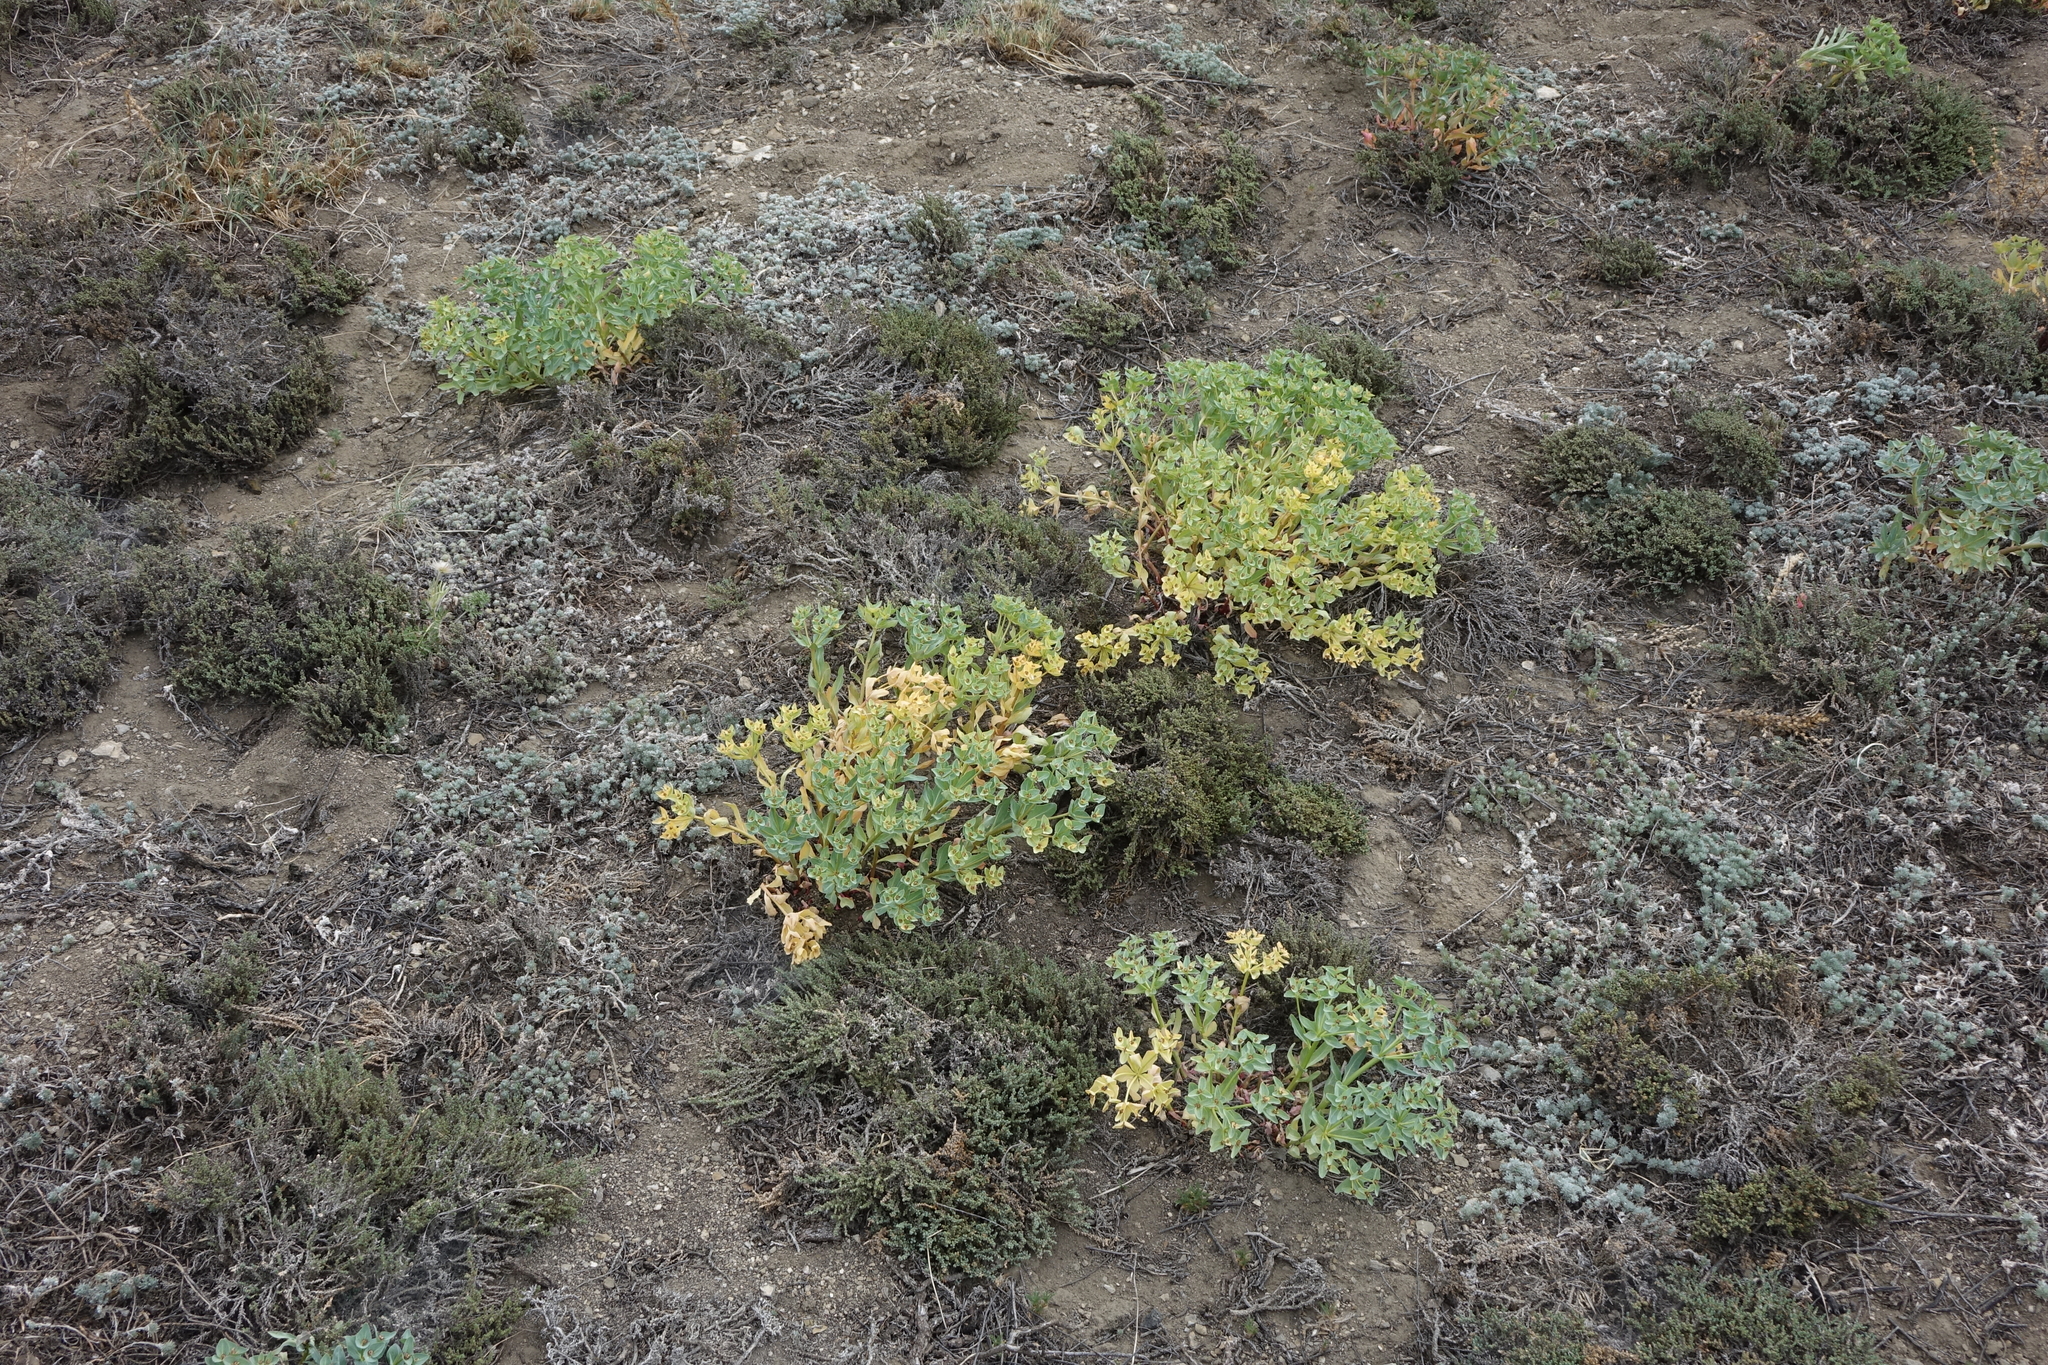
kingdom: Plantae
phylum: Tracheophyta
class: Magnoliopsida
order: Malpighiales
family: Euphorbiaceae
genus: Euphorbia
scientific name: Euphorbia mongolica
